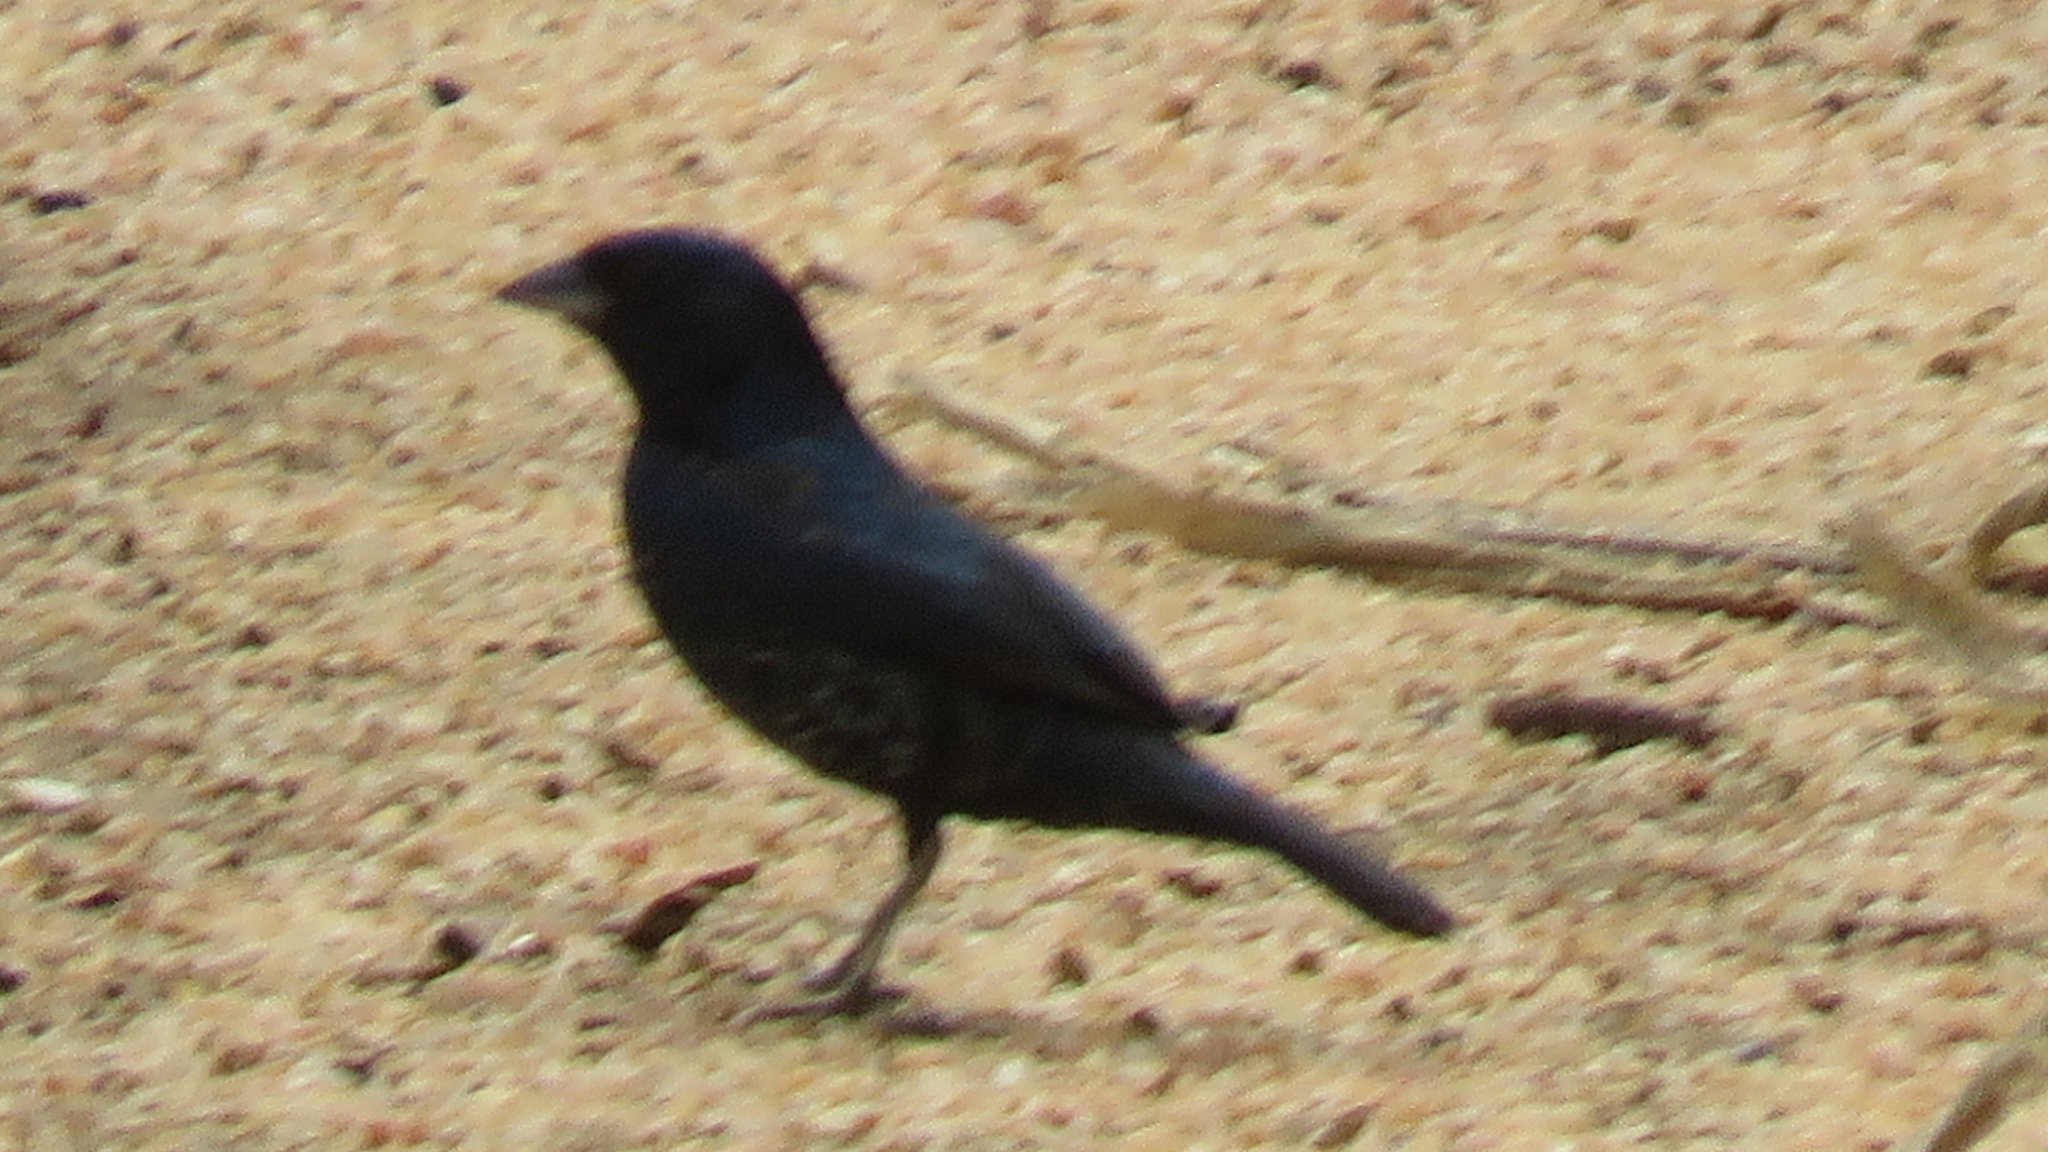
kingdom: Animalia
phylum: Chordata
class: Aves
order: Passeriformes
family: Thraupidae
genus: Volatinia
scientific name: Volatinia jacarina
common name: Blue-black grassquit
